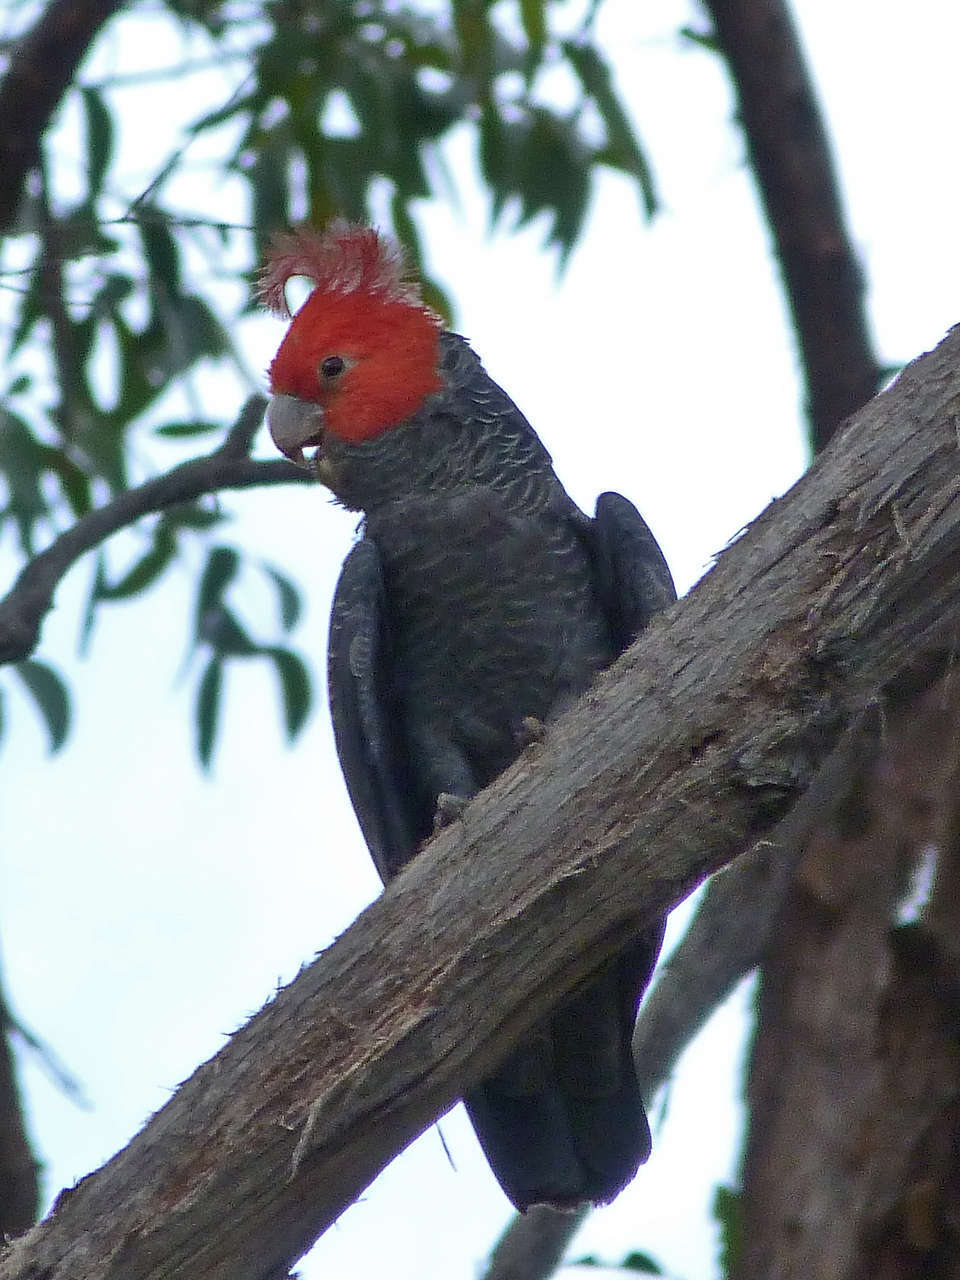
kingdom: Animalia
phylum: Chordata
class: Aves
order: Psittaciformes
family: Psittacidae
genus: Callocephalon
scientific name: Callocephalon fimbriatum
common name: Gang-gang cockatoo
